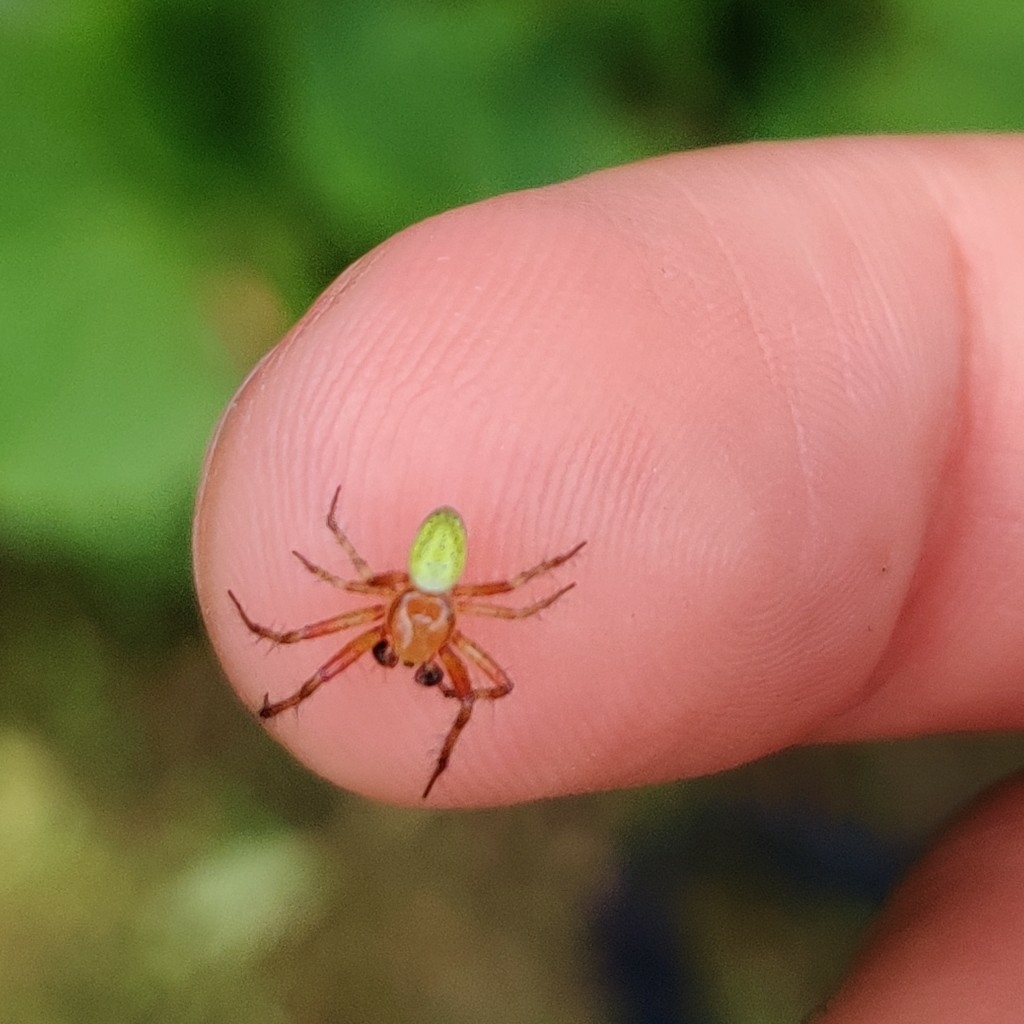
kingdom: Animalia
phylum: Arthropoda
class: Arachnida
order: Araneae
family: Araneidae
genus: Araniella
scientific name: Araniella
